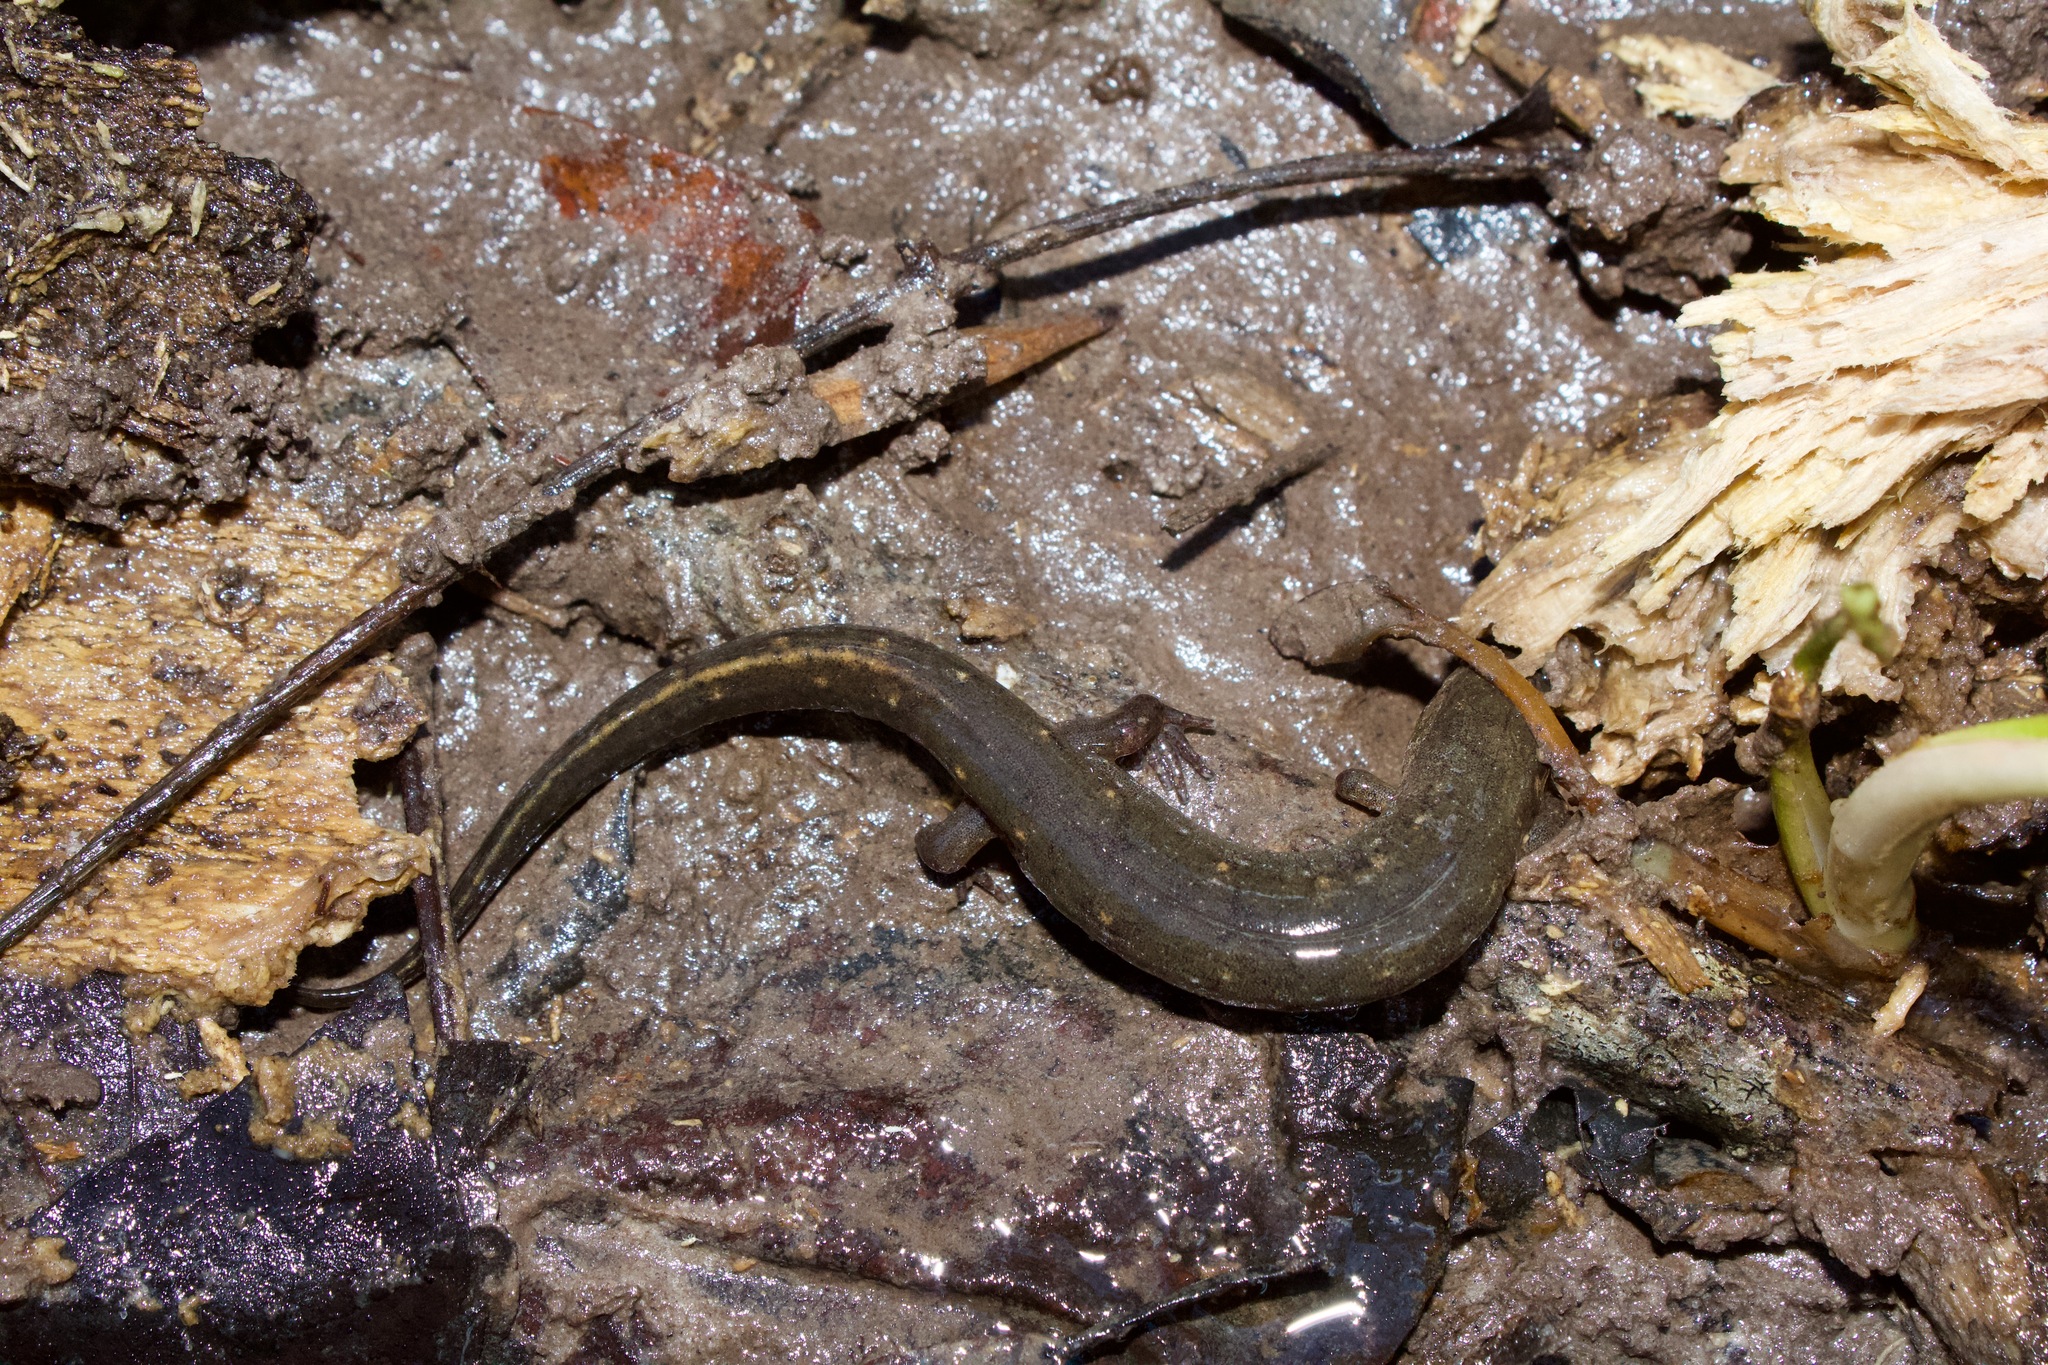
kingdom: Animalia
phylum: Chordata
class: Amphibia
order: Caudata
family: Plethodontidae
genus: Desmognathus
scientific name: Desmognathus valentinei
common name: Valentine's southern dusky salamander
